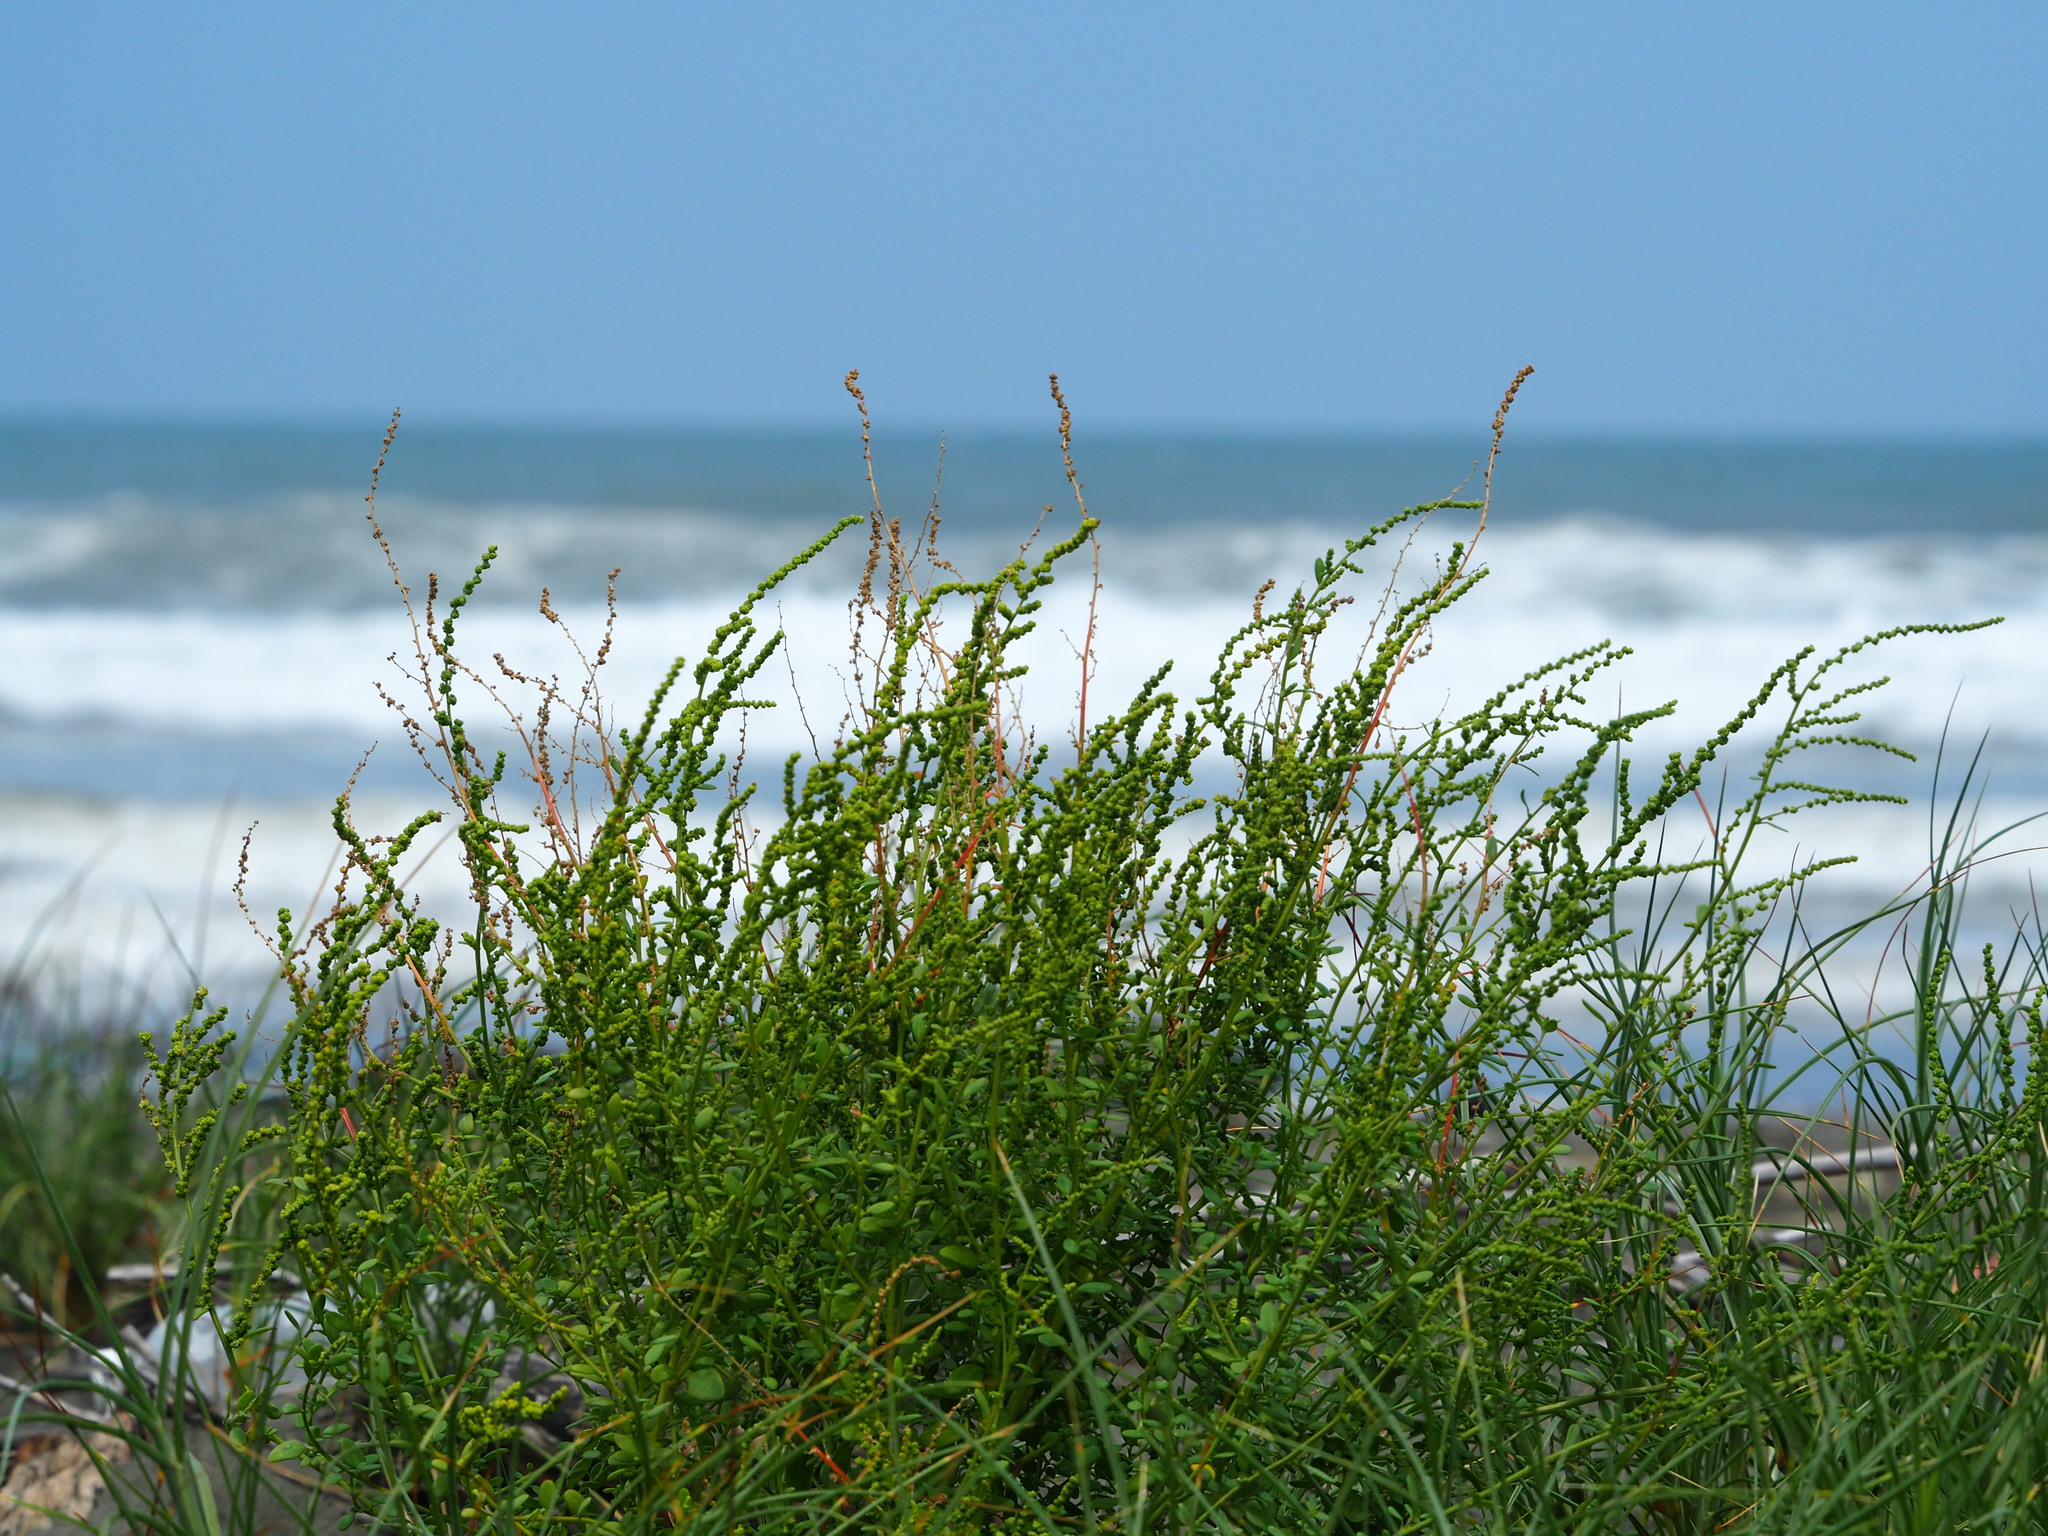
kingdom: Plantae
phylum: Tracheophyta
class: Magnoliopsida
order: Caryophyllales
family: Amaranthaceae
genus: Chenopodium
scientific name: Chenopodium acuminatum
